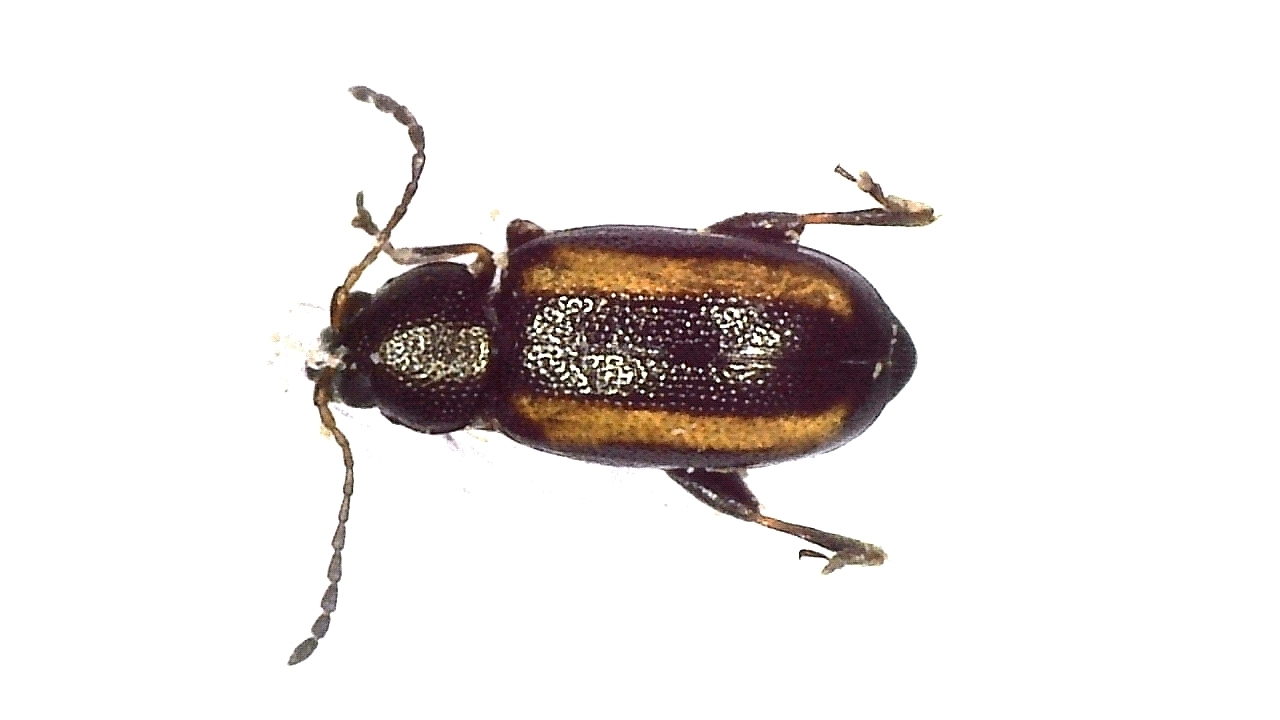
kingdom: Animalia
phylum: Arthropoda
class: Insecta
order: Coleoptera
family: Chrysomelidae
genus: Phyllotreta
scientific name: Phyllotreta nemorum
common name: Large striped flea beetle
